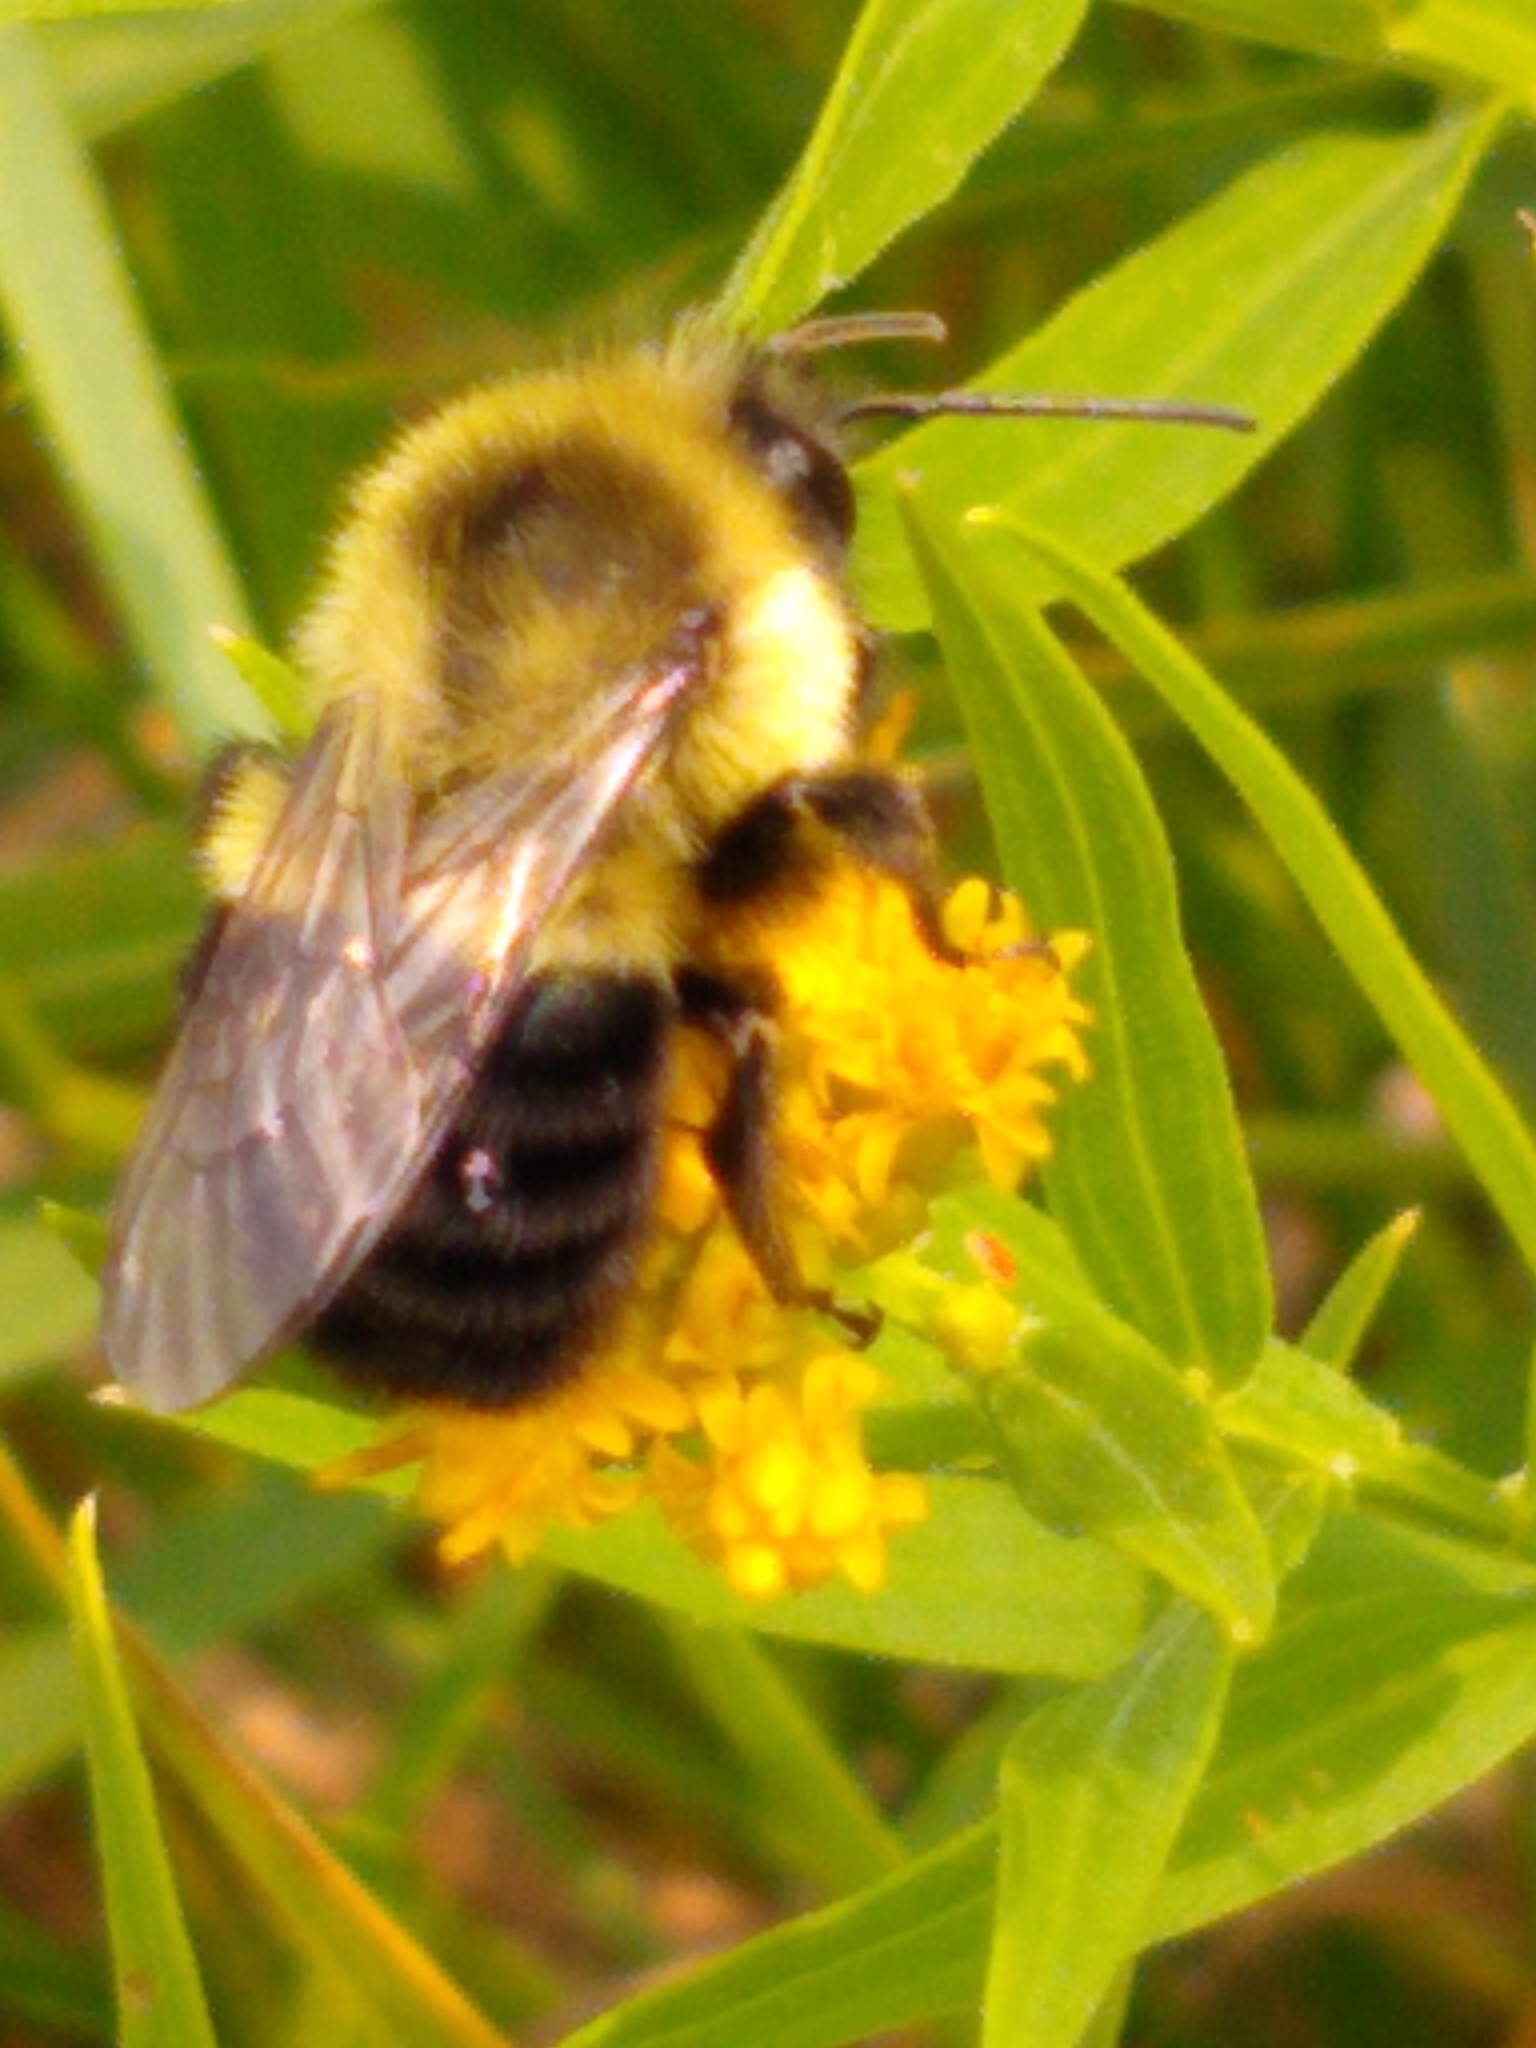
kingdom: Animalia
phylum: Arthropoda
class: Insecta
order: Hymenoptera
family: Apidae
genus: Bombus
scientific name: Bombus impatiens
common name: Common eastern bumble bee
